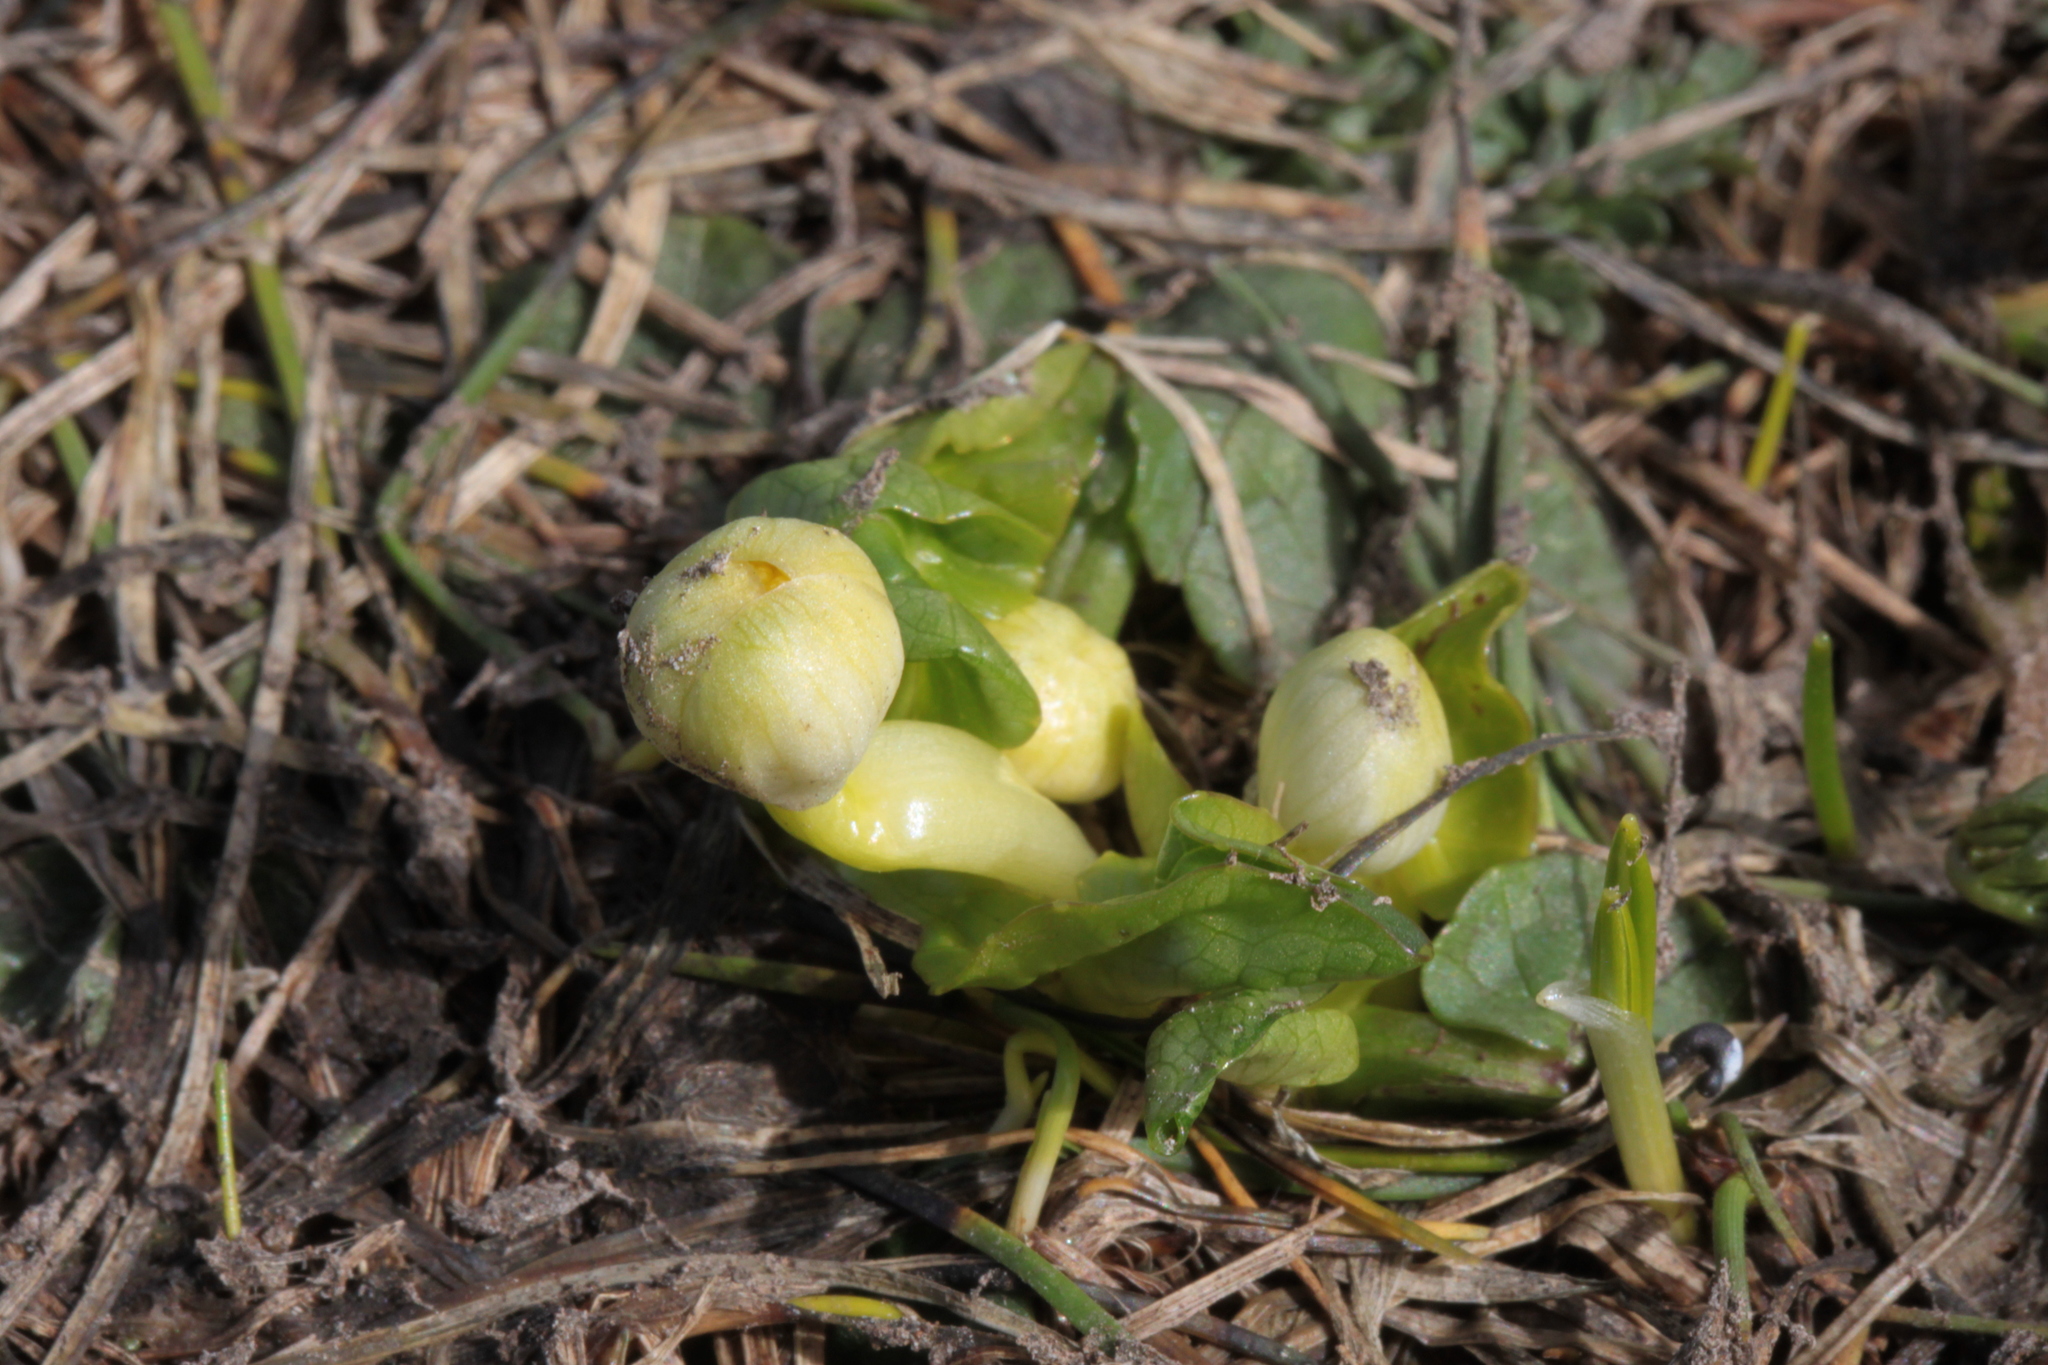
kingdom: Plantae
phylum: Tracheophyta
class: Magnoliopsida
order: Ranunculales
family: Ranunculaceae
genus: Ficaria
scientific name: Ficaria verna
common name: Lesser celandine
